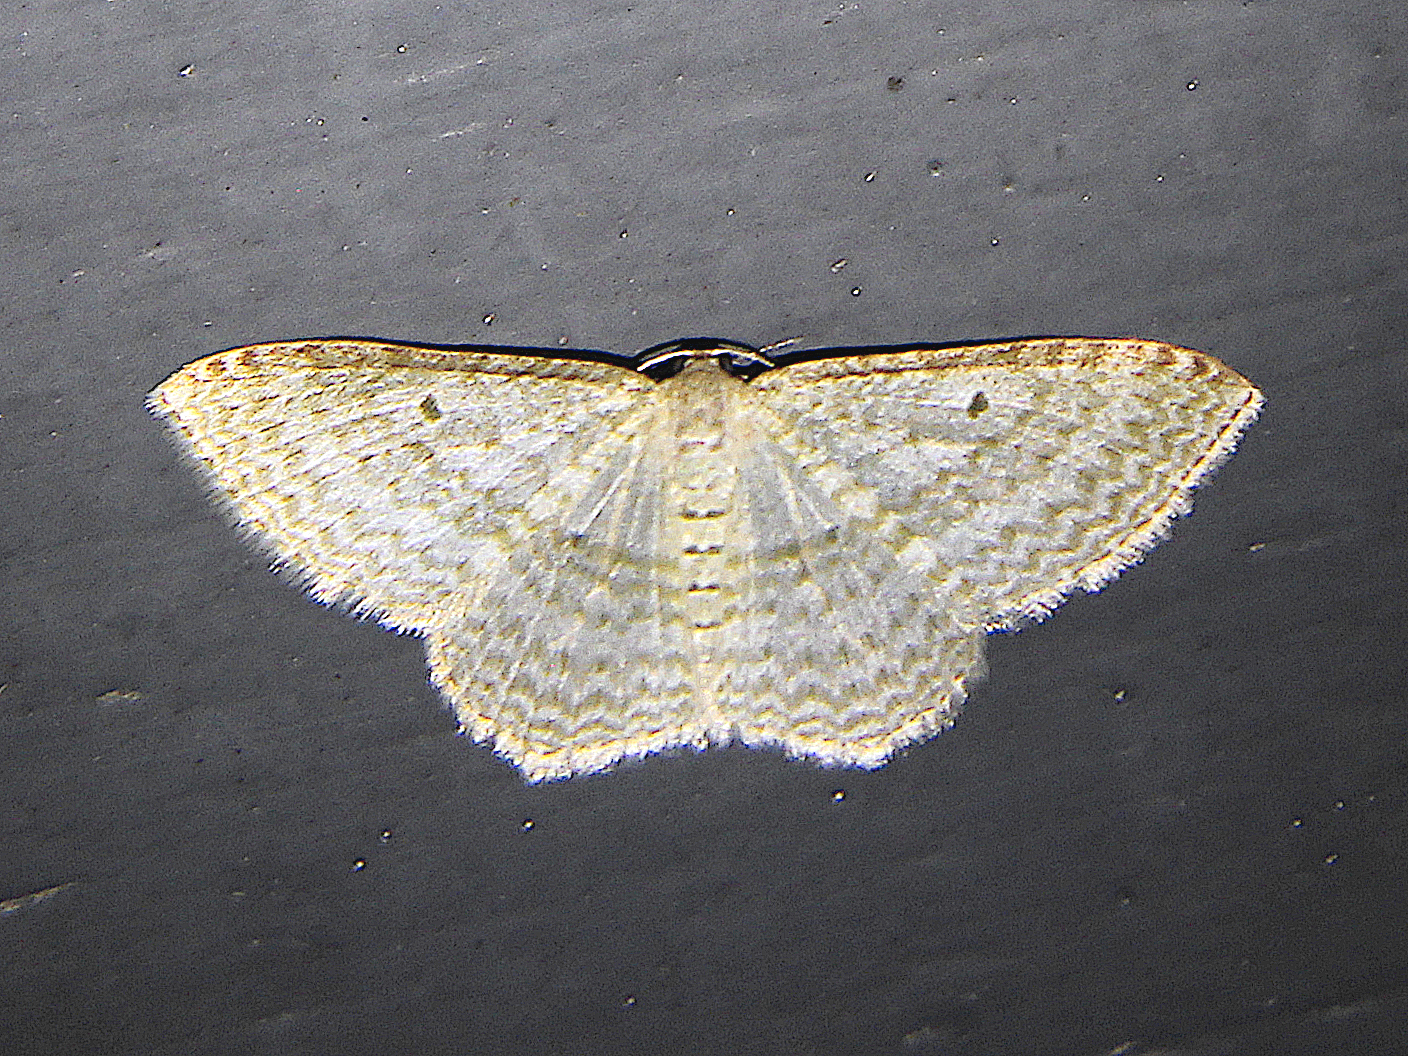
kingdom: Animalia
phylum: Arthropoda
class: Insecta
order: Lepidoptera
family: Geometridae
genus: Poecilasthena
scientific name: Poecilasthena pulchraria
